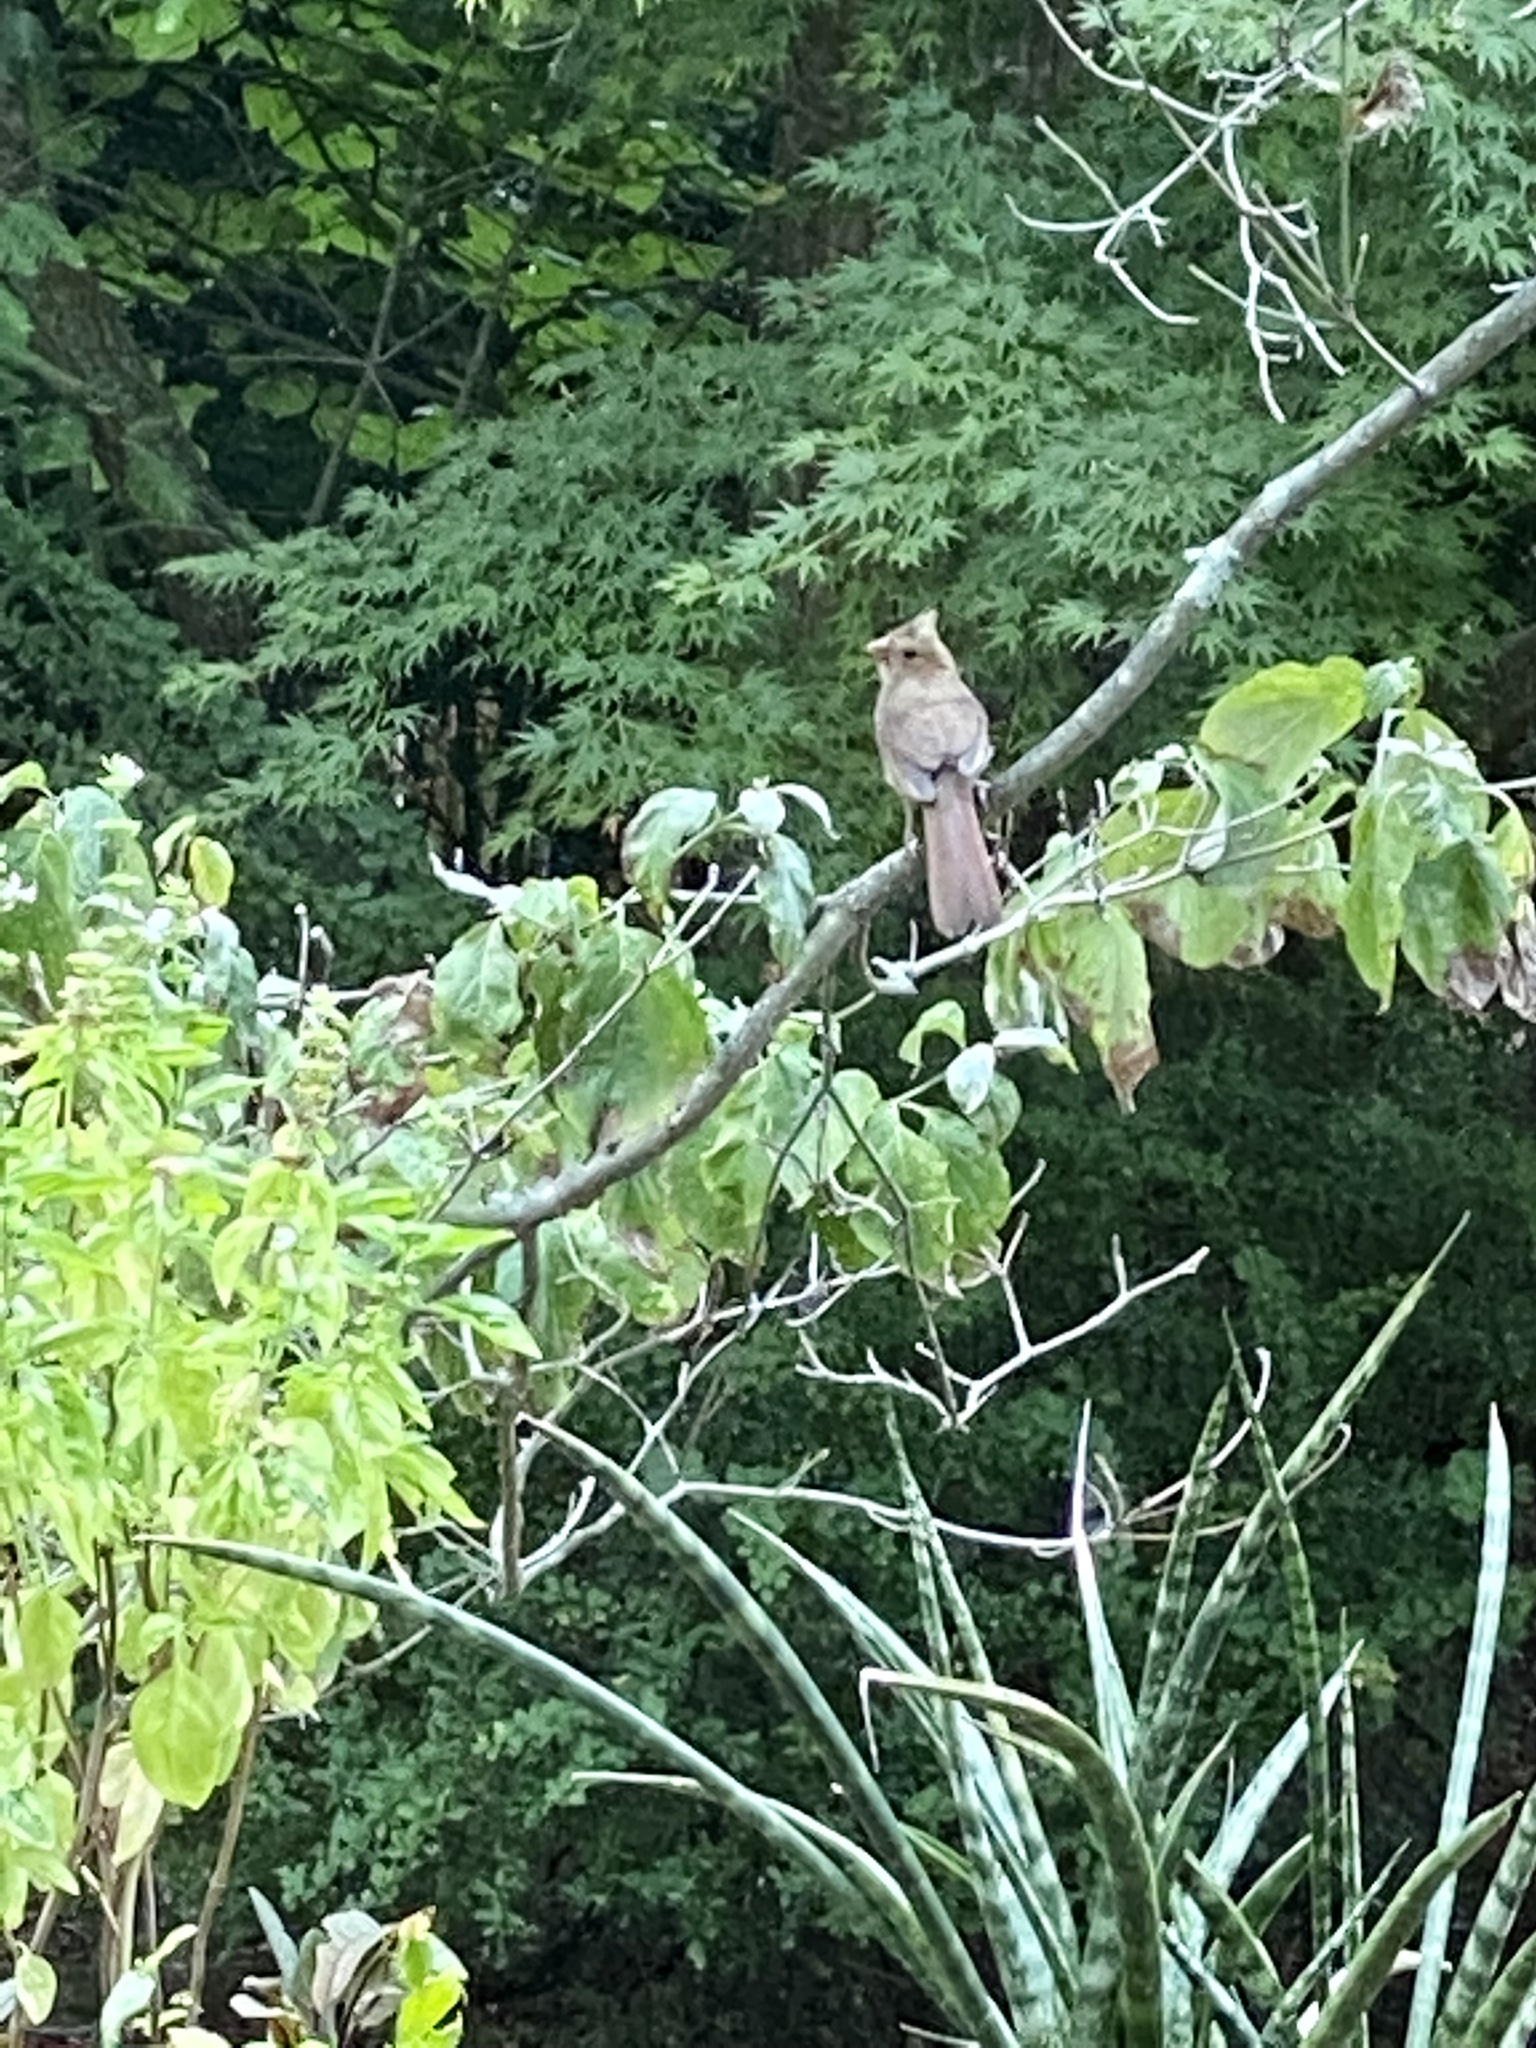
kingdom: Animalia
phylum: Chordata
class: Aves
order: Passeriformes
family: Cardinalidae
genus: Cardinalis
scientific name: Cardinalis cardinalis
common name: Northern cardinal
